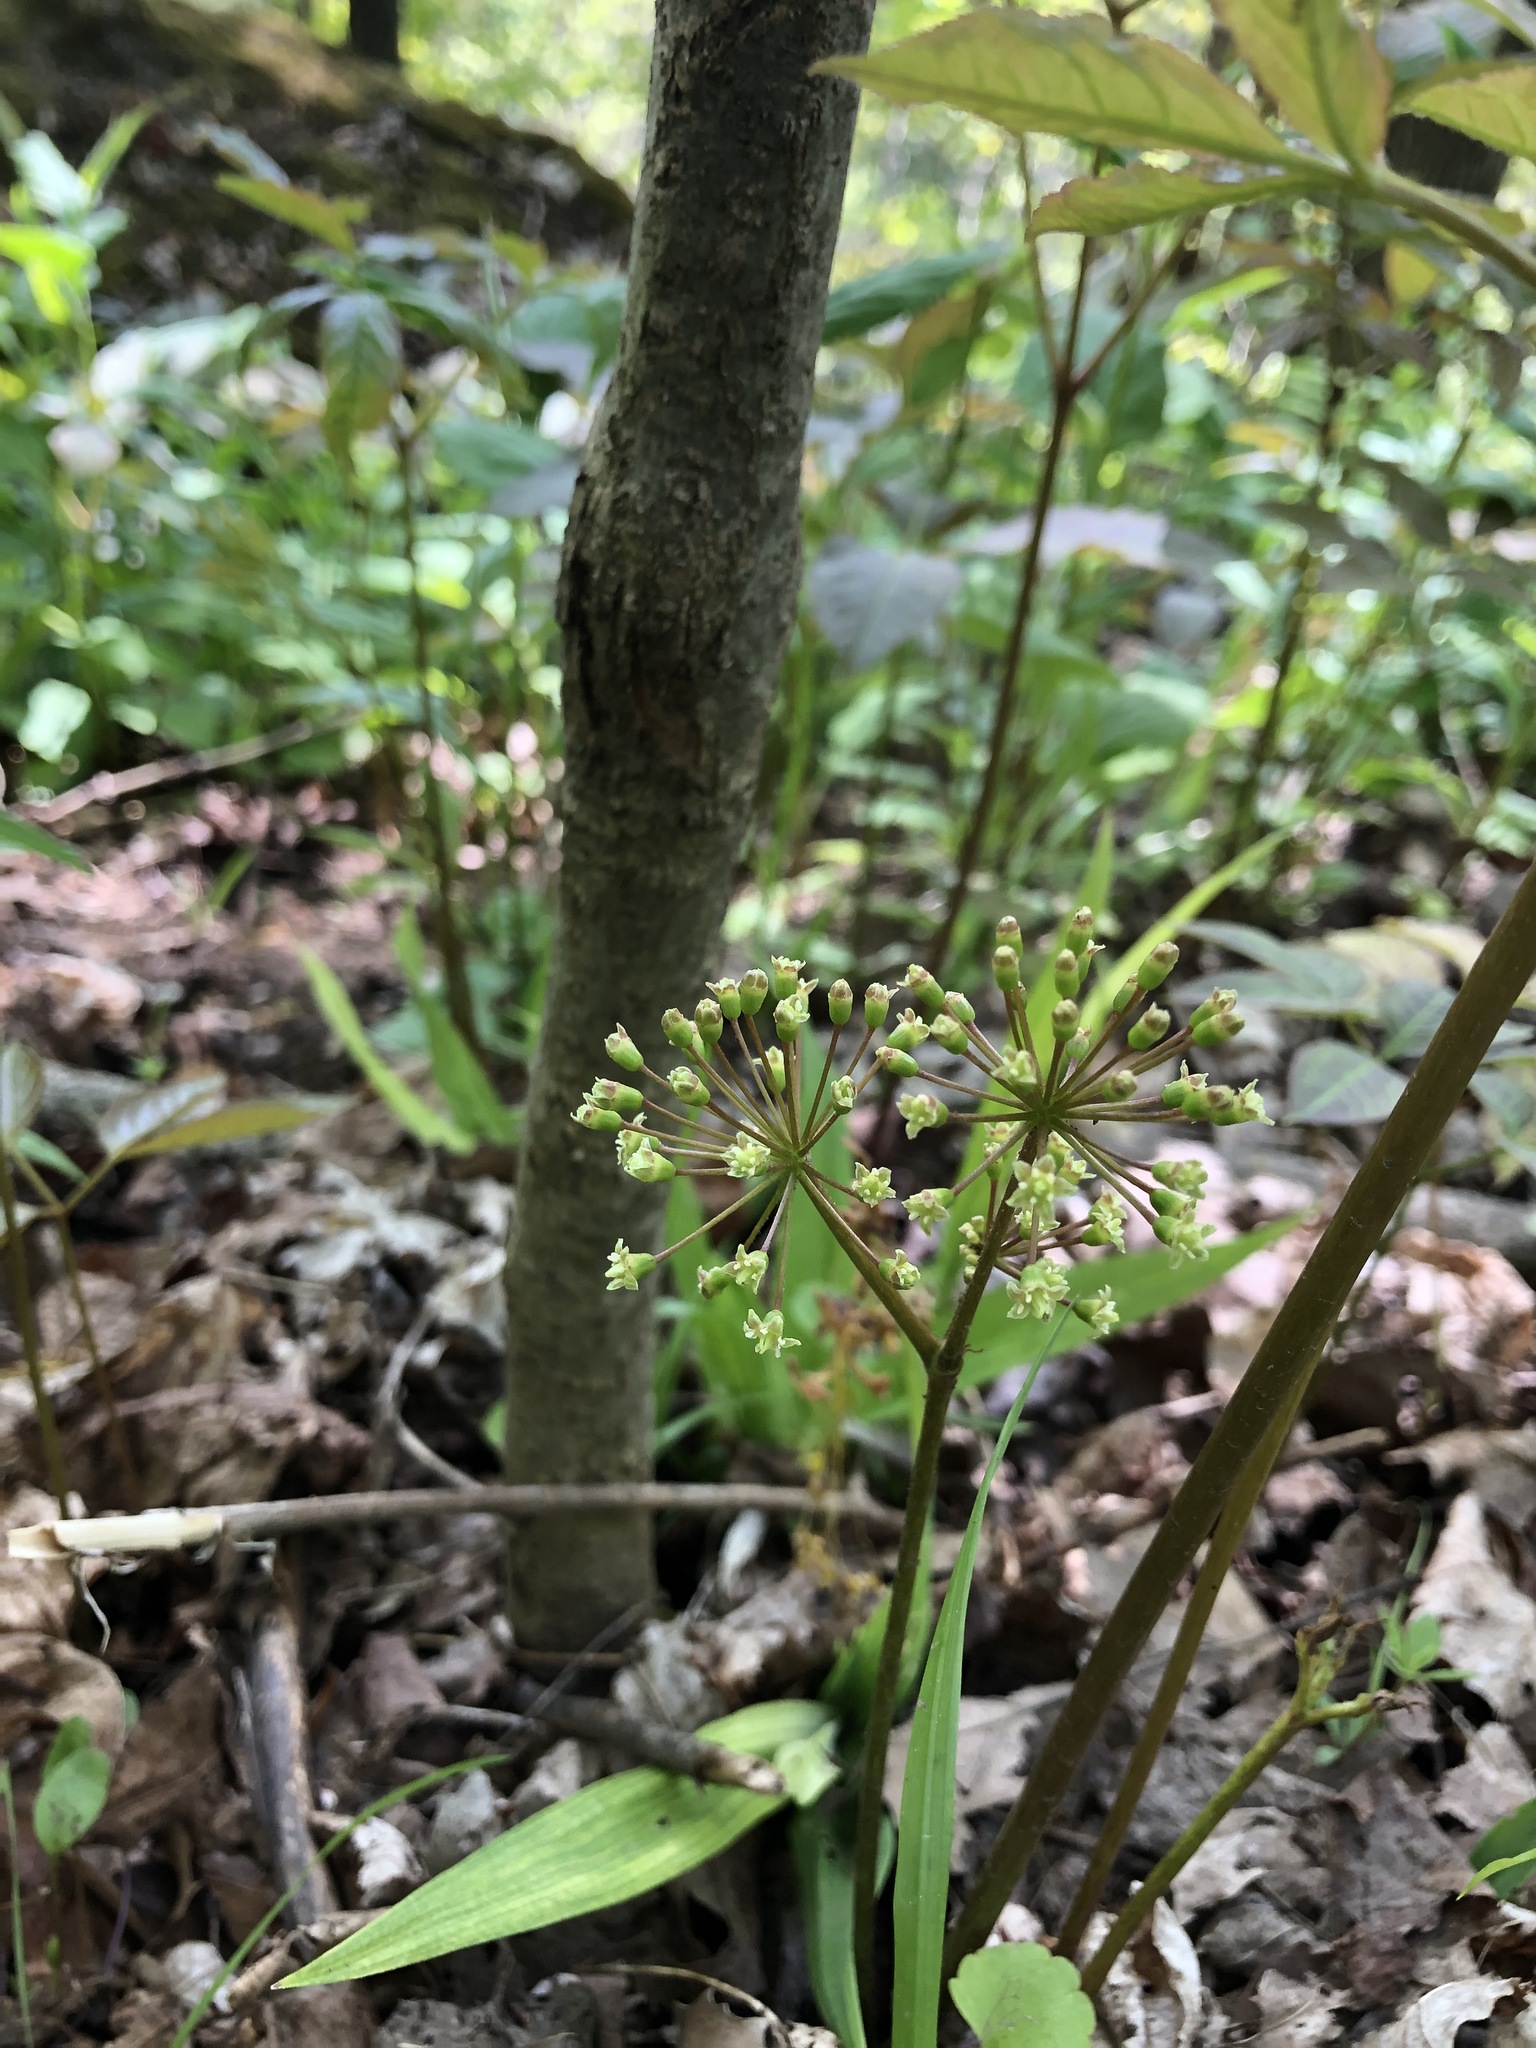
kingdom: Plantae
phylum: Tracheophyta
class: Magnoliopsida
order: Apiales
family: Araliaceae
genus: Aralia
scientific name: Aralia nudicaulis
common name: Wild sarsaparilla
